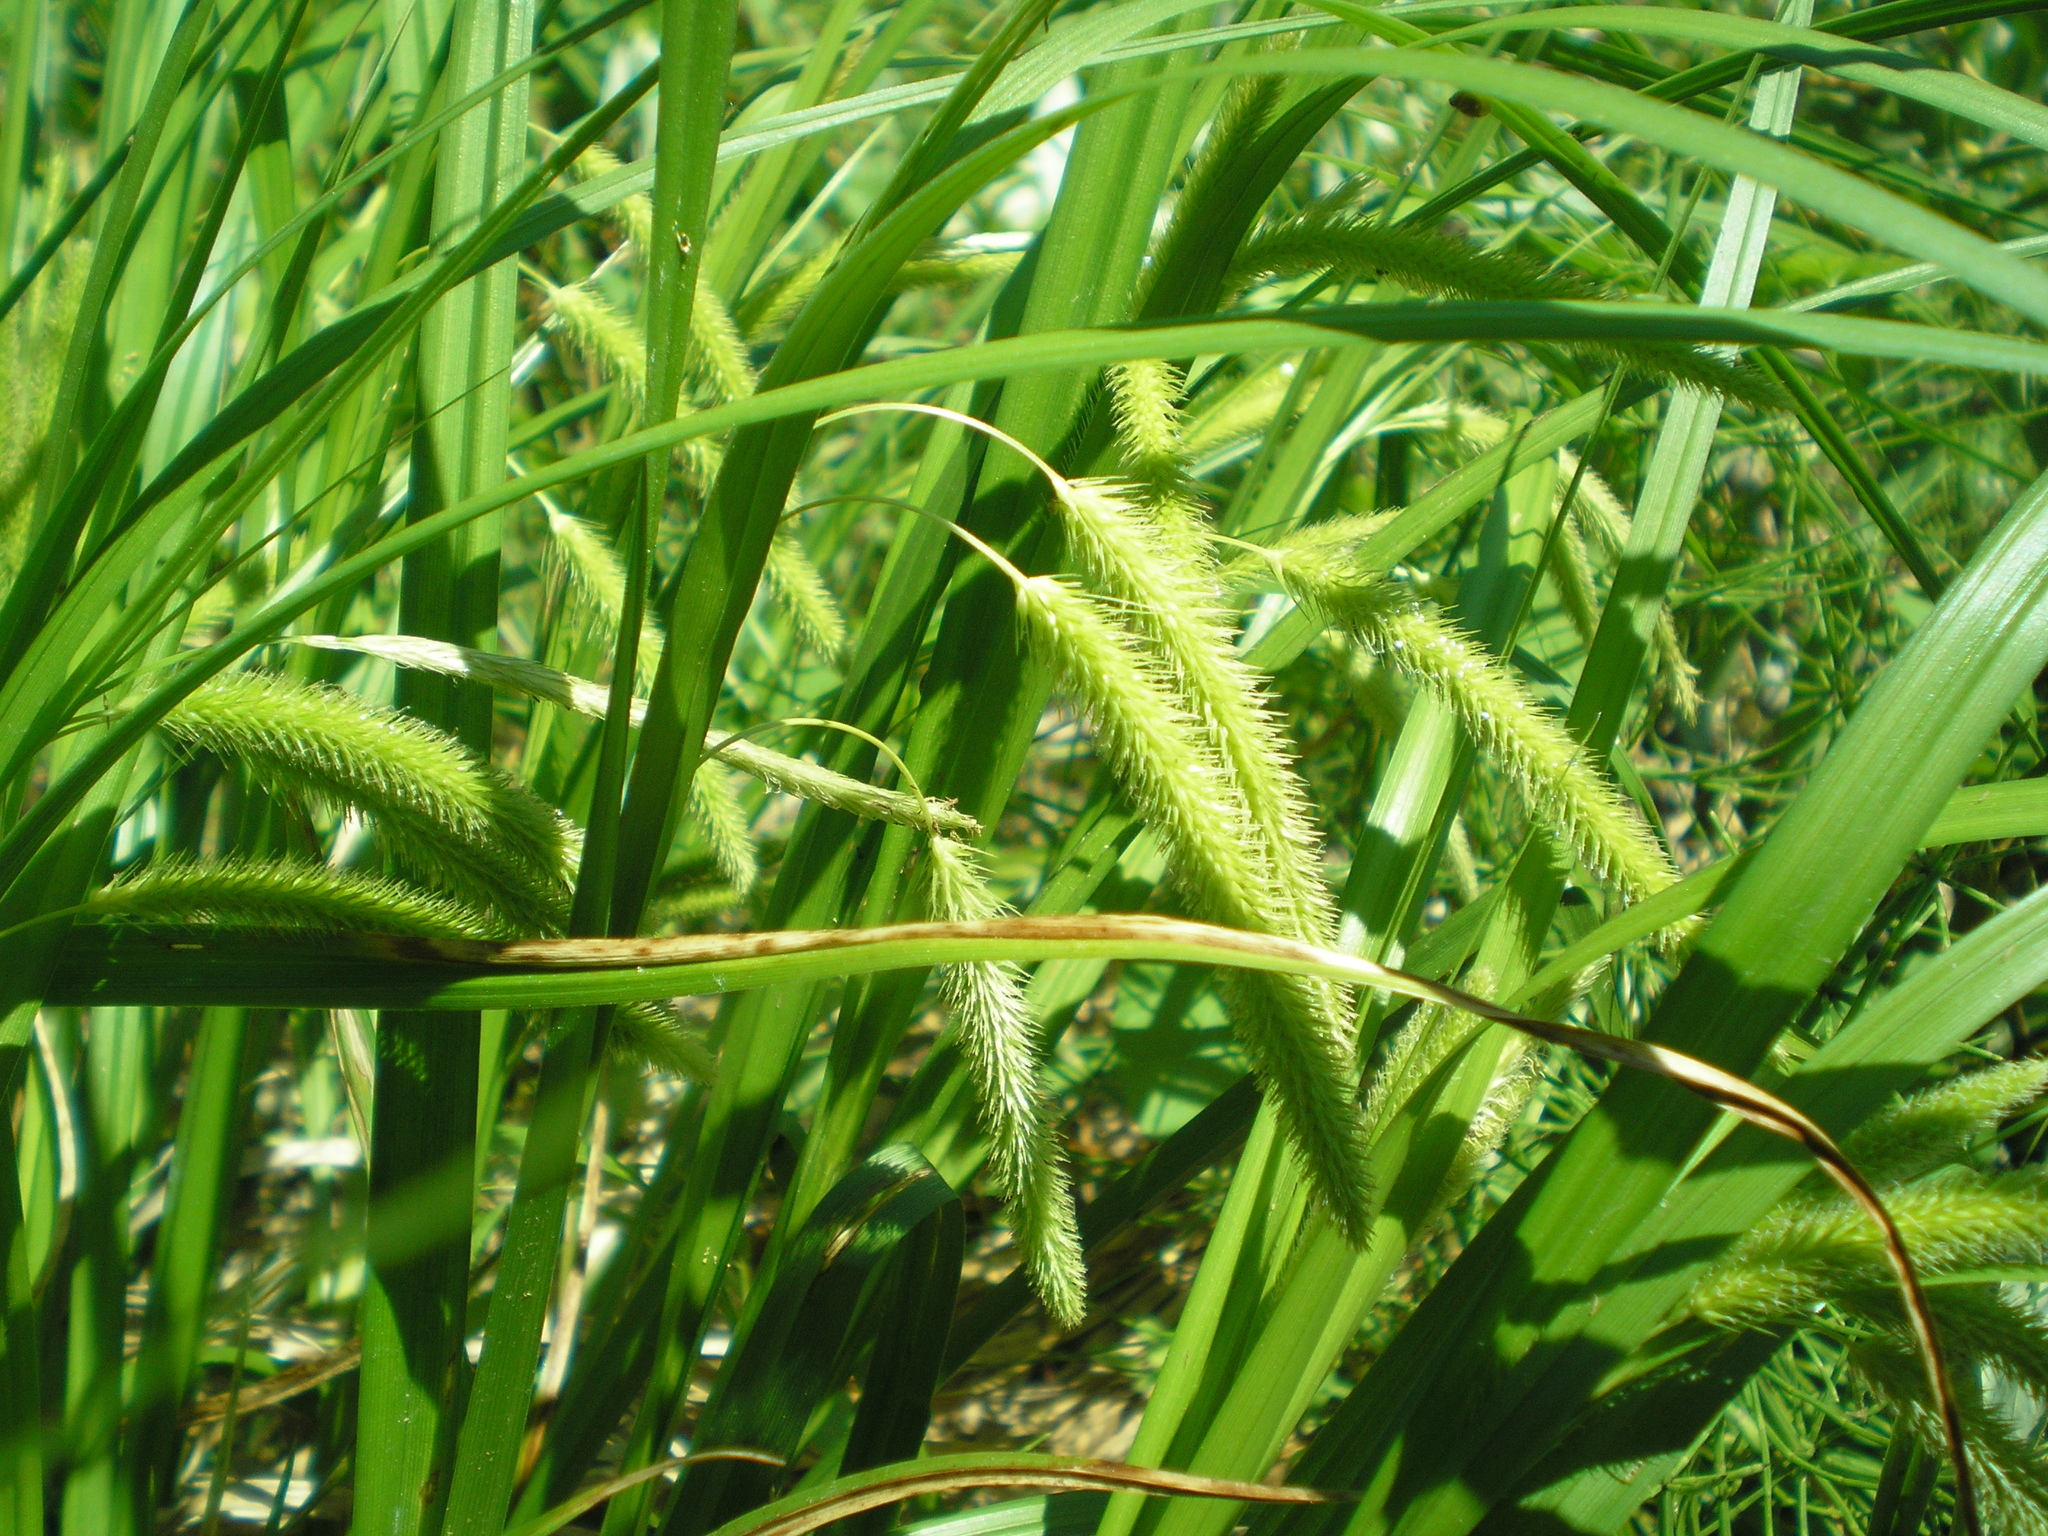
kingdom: Plantae
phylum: Tracheophyta
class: Liliopsida
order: Poales
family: Cyperaceae
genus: Carex
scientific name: Carex pseudocyperus
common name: Cyperus sedge
